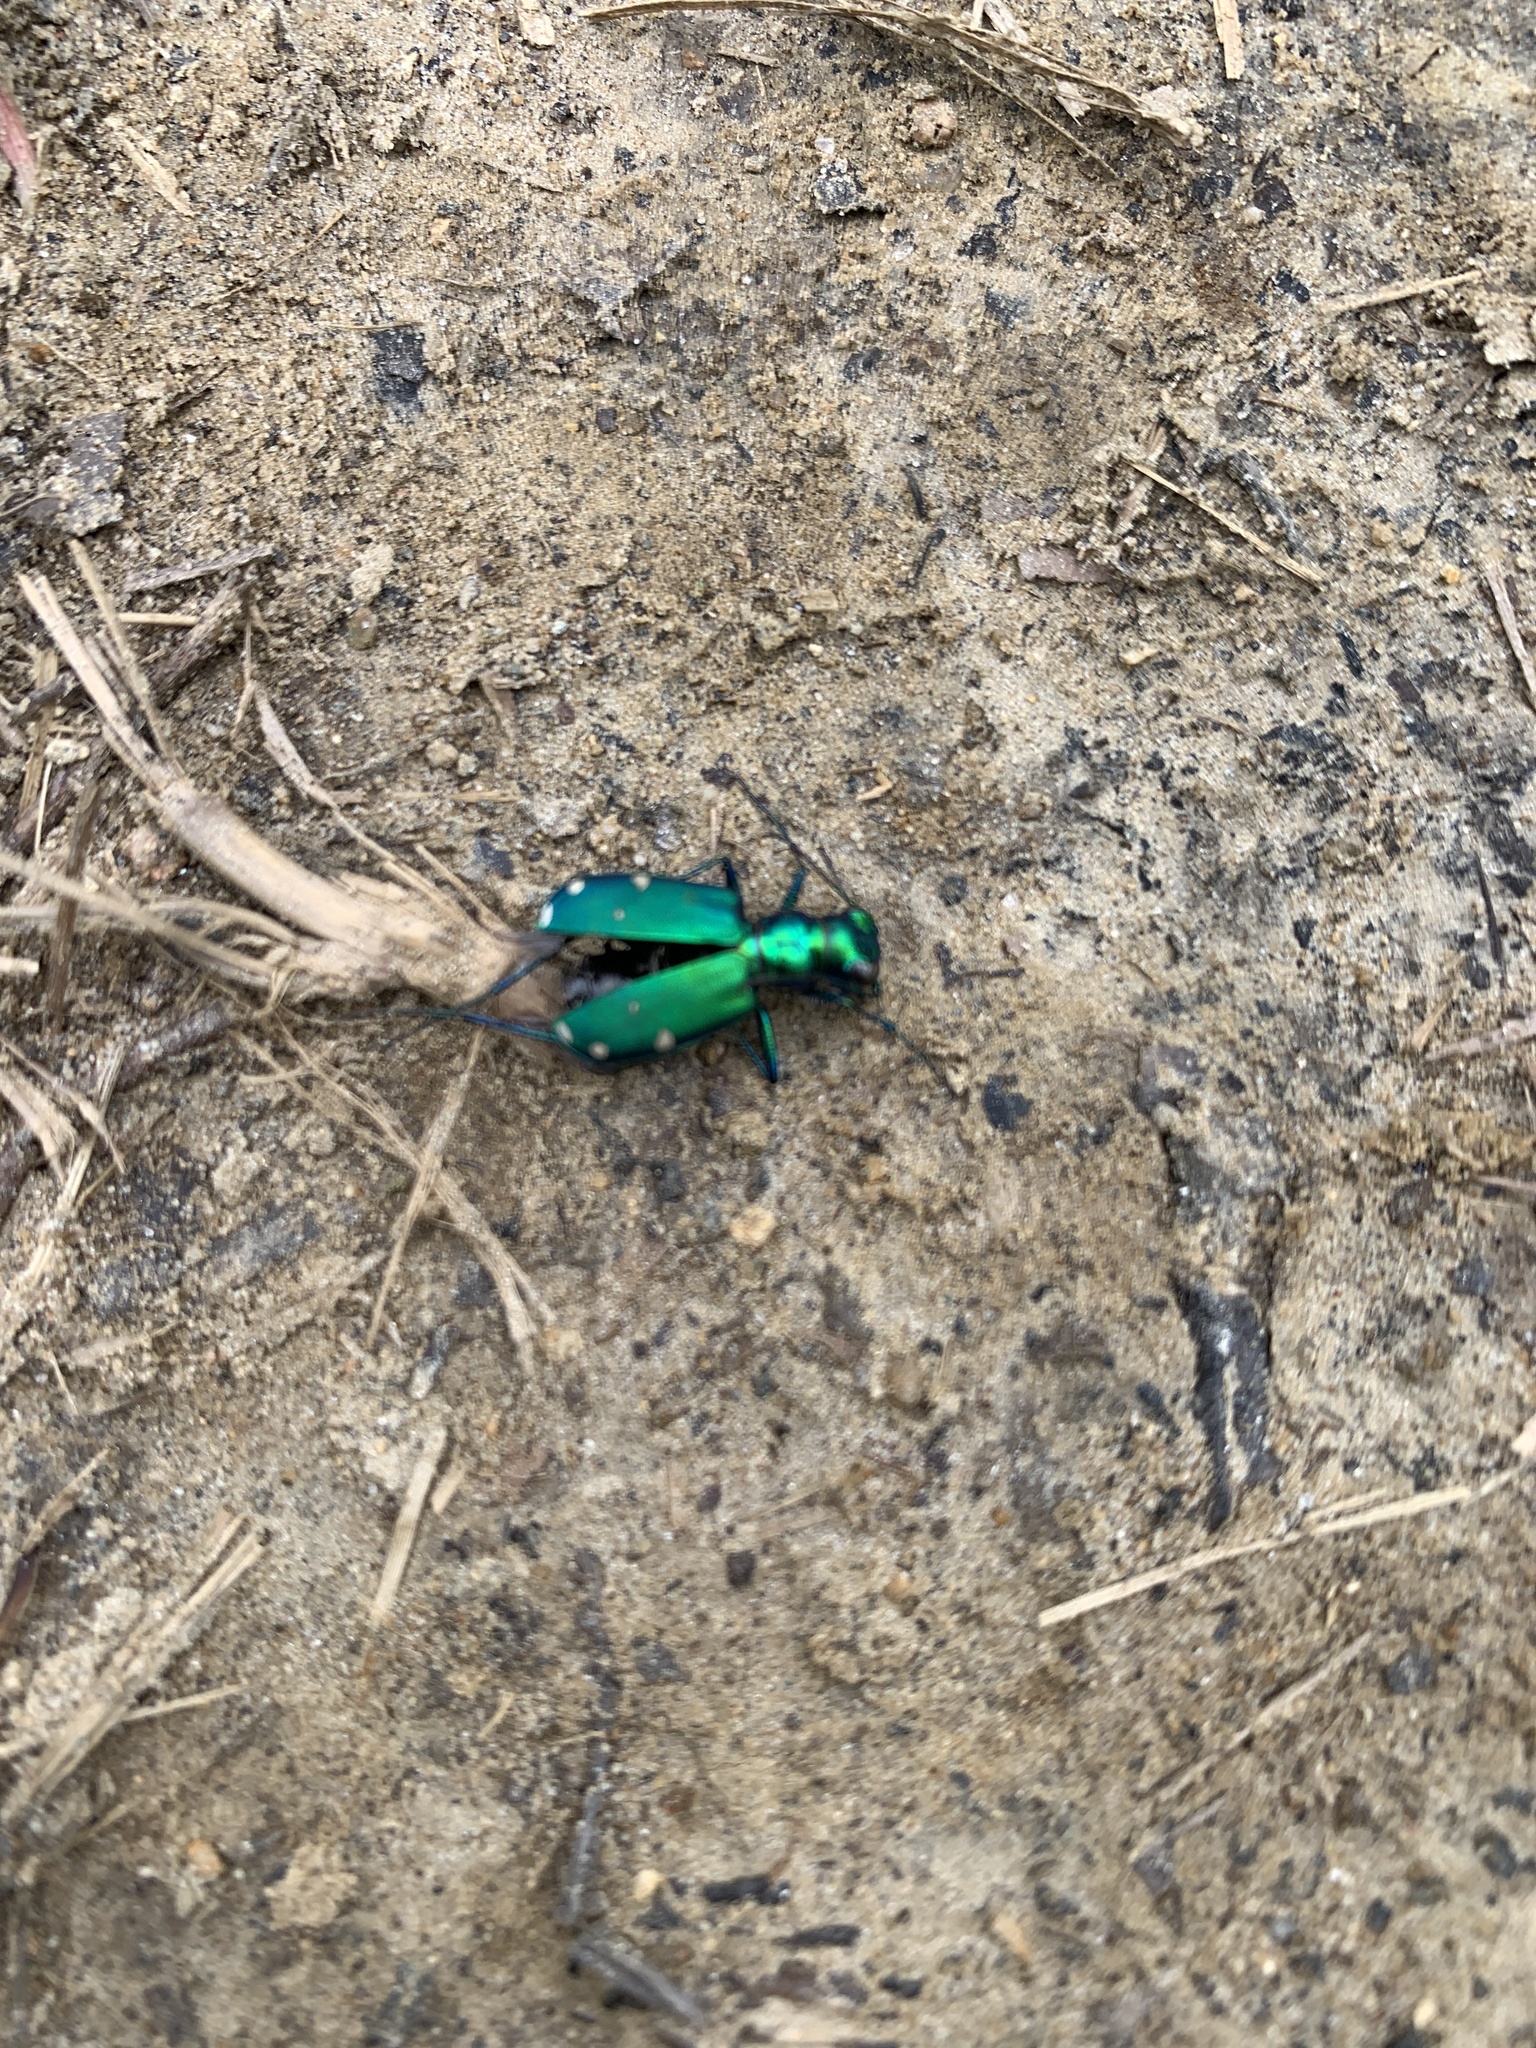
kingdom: Animalia
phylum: Arthropoda
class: Insecta
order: Coleoptera
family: Carabidae
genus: Cicindela
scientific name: Cicindela sexguttata
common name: Six-spotted tiger beetle
